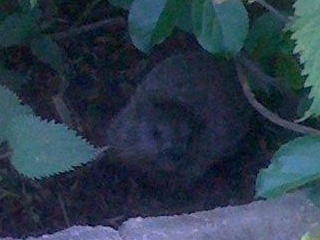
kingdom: Animalia
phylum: Chordata
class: Mammalia
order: Rodentia
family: Sciuridae
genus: Marmota
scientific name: Marmota monax
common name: Groundhog
